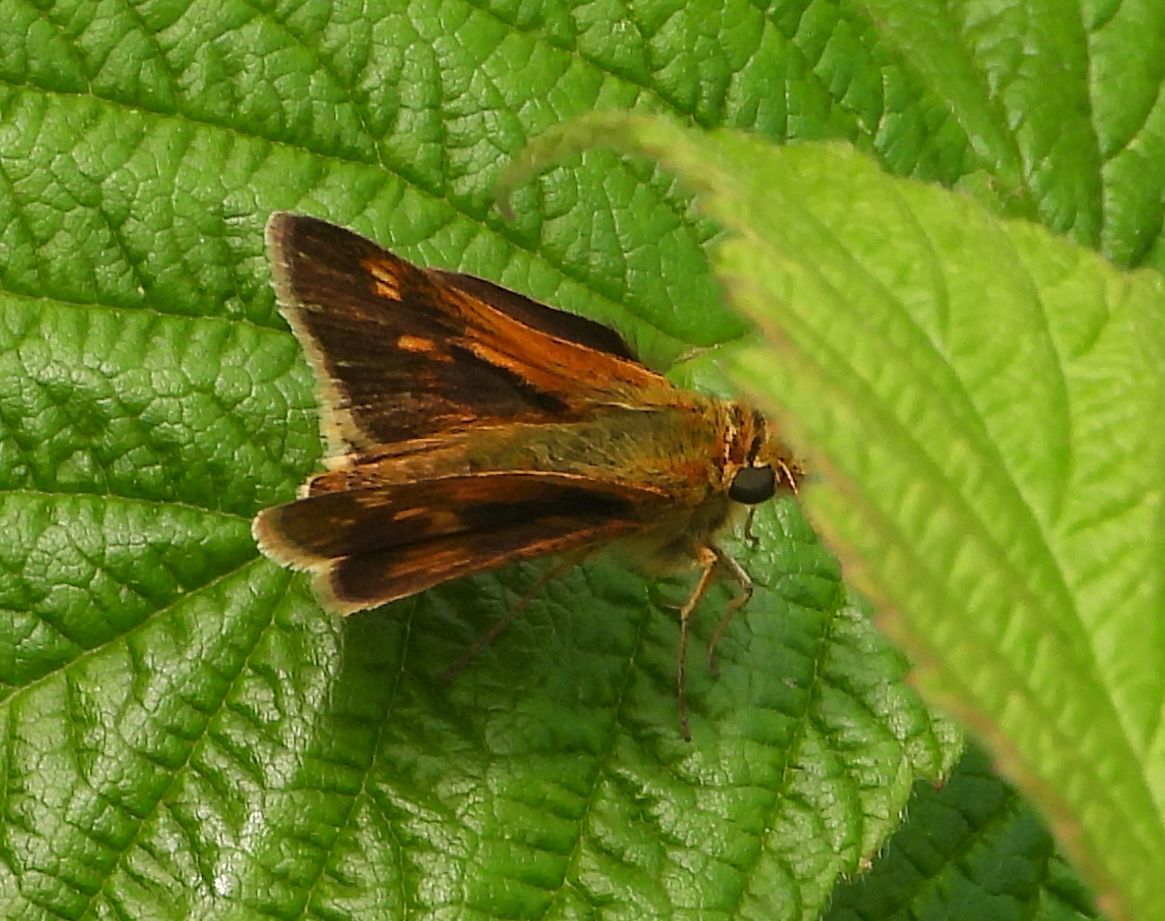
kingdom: Animalia
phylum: Arthropoda
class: Insecta
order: Lepidoptera
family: Hesperiidae
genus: Polites
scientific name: Polites coras
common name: Peck's skipper
